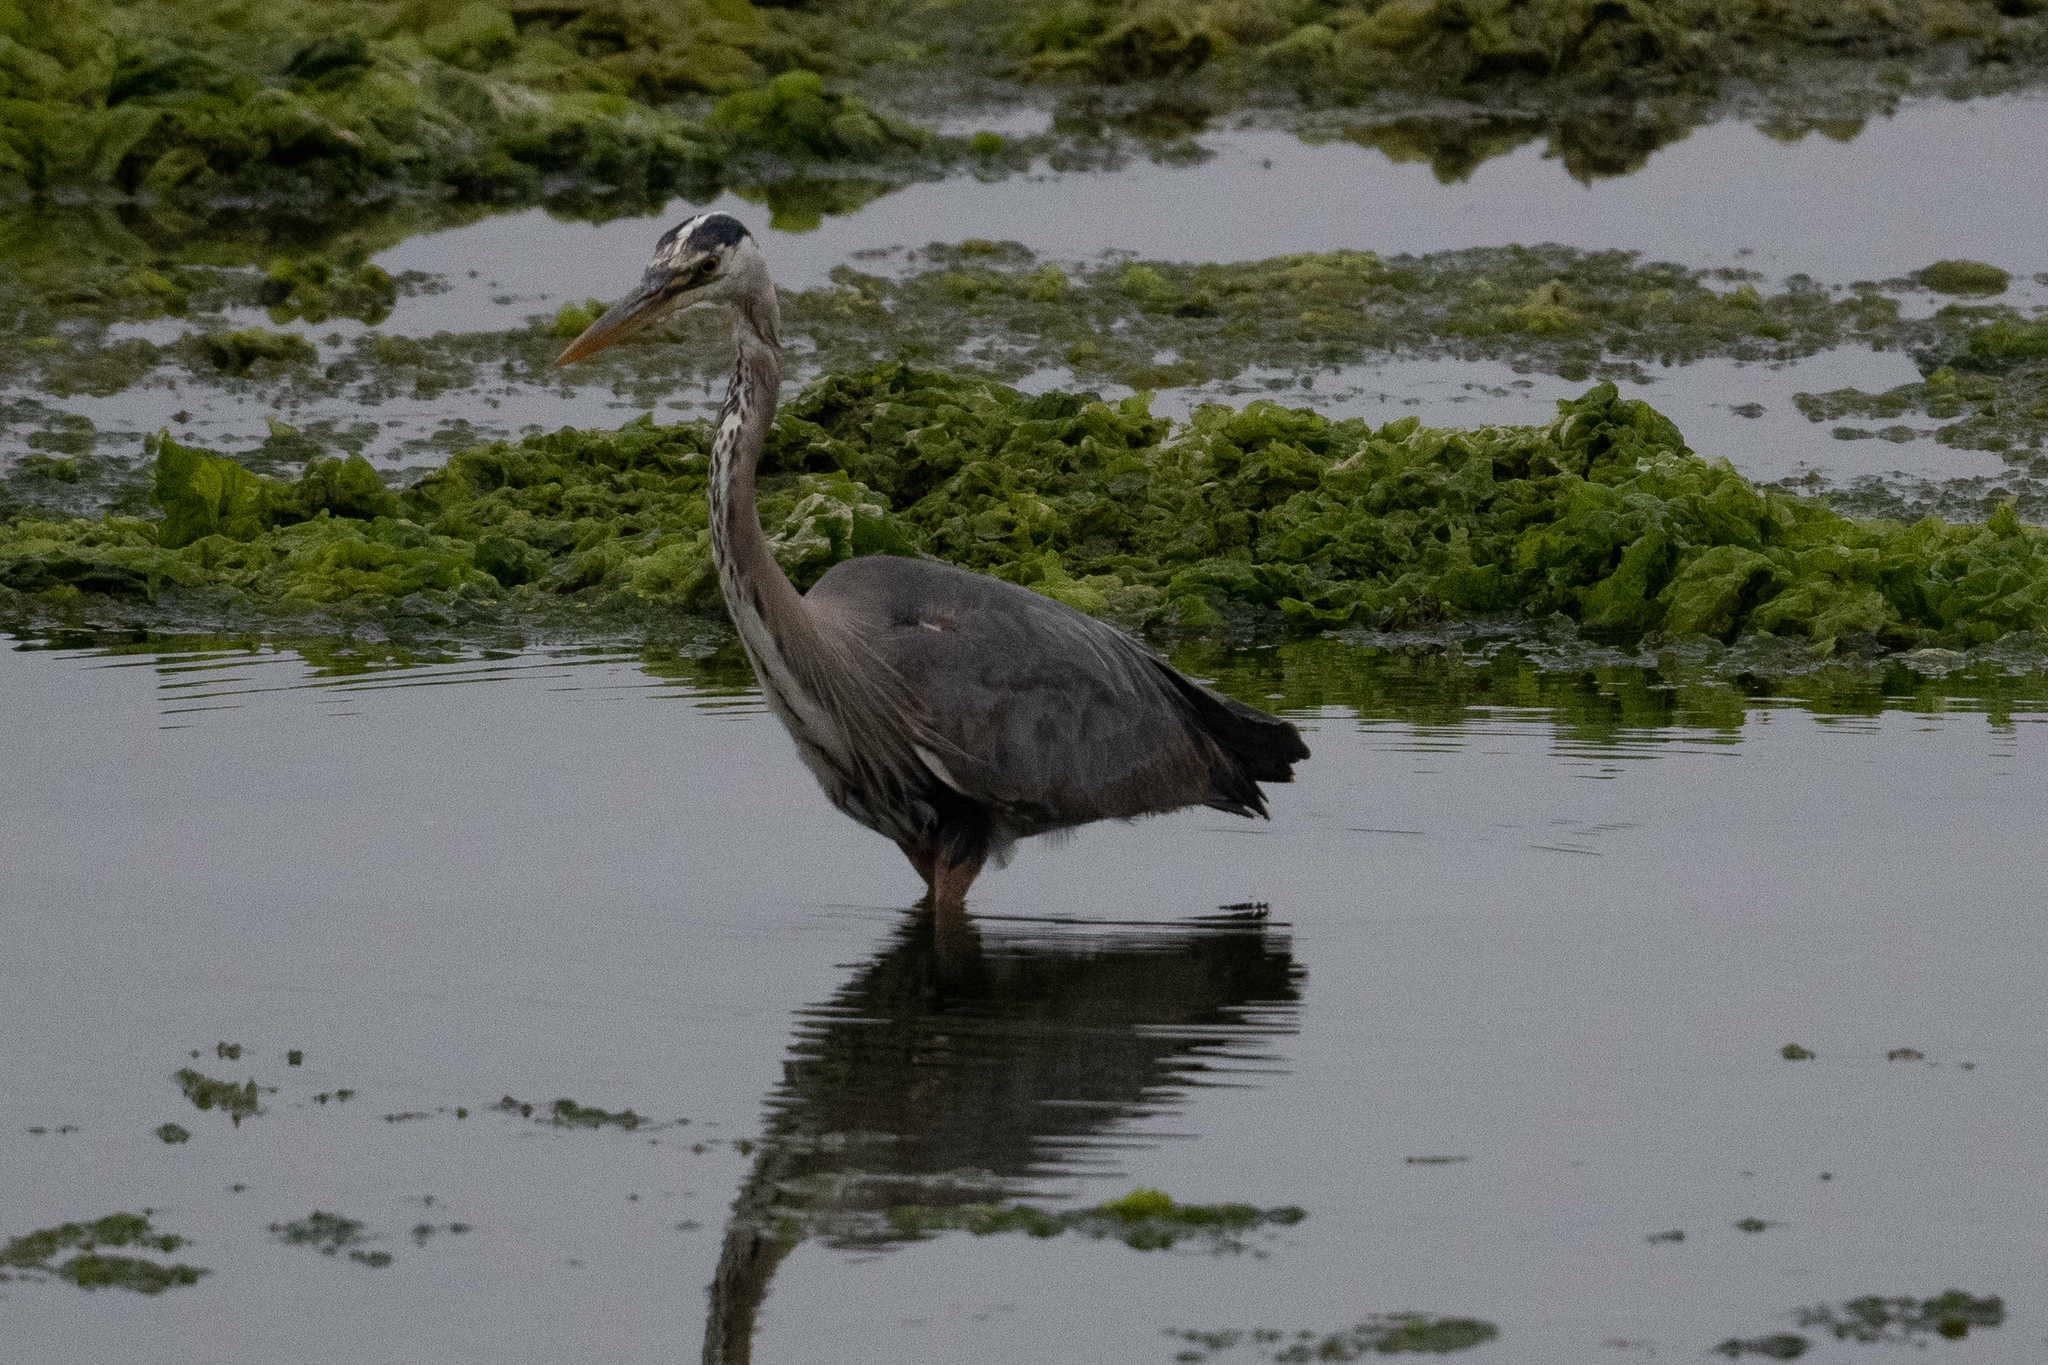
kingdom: Animalia
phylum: Chordata
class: Aves
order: Pelecaniformes
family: Ardeidae
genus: Ardea
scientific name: Ardea herodias
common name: Great blue heron
